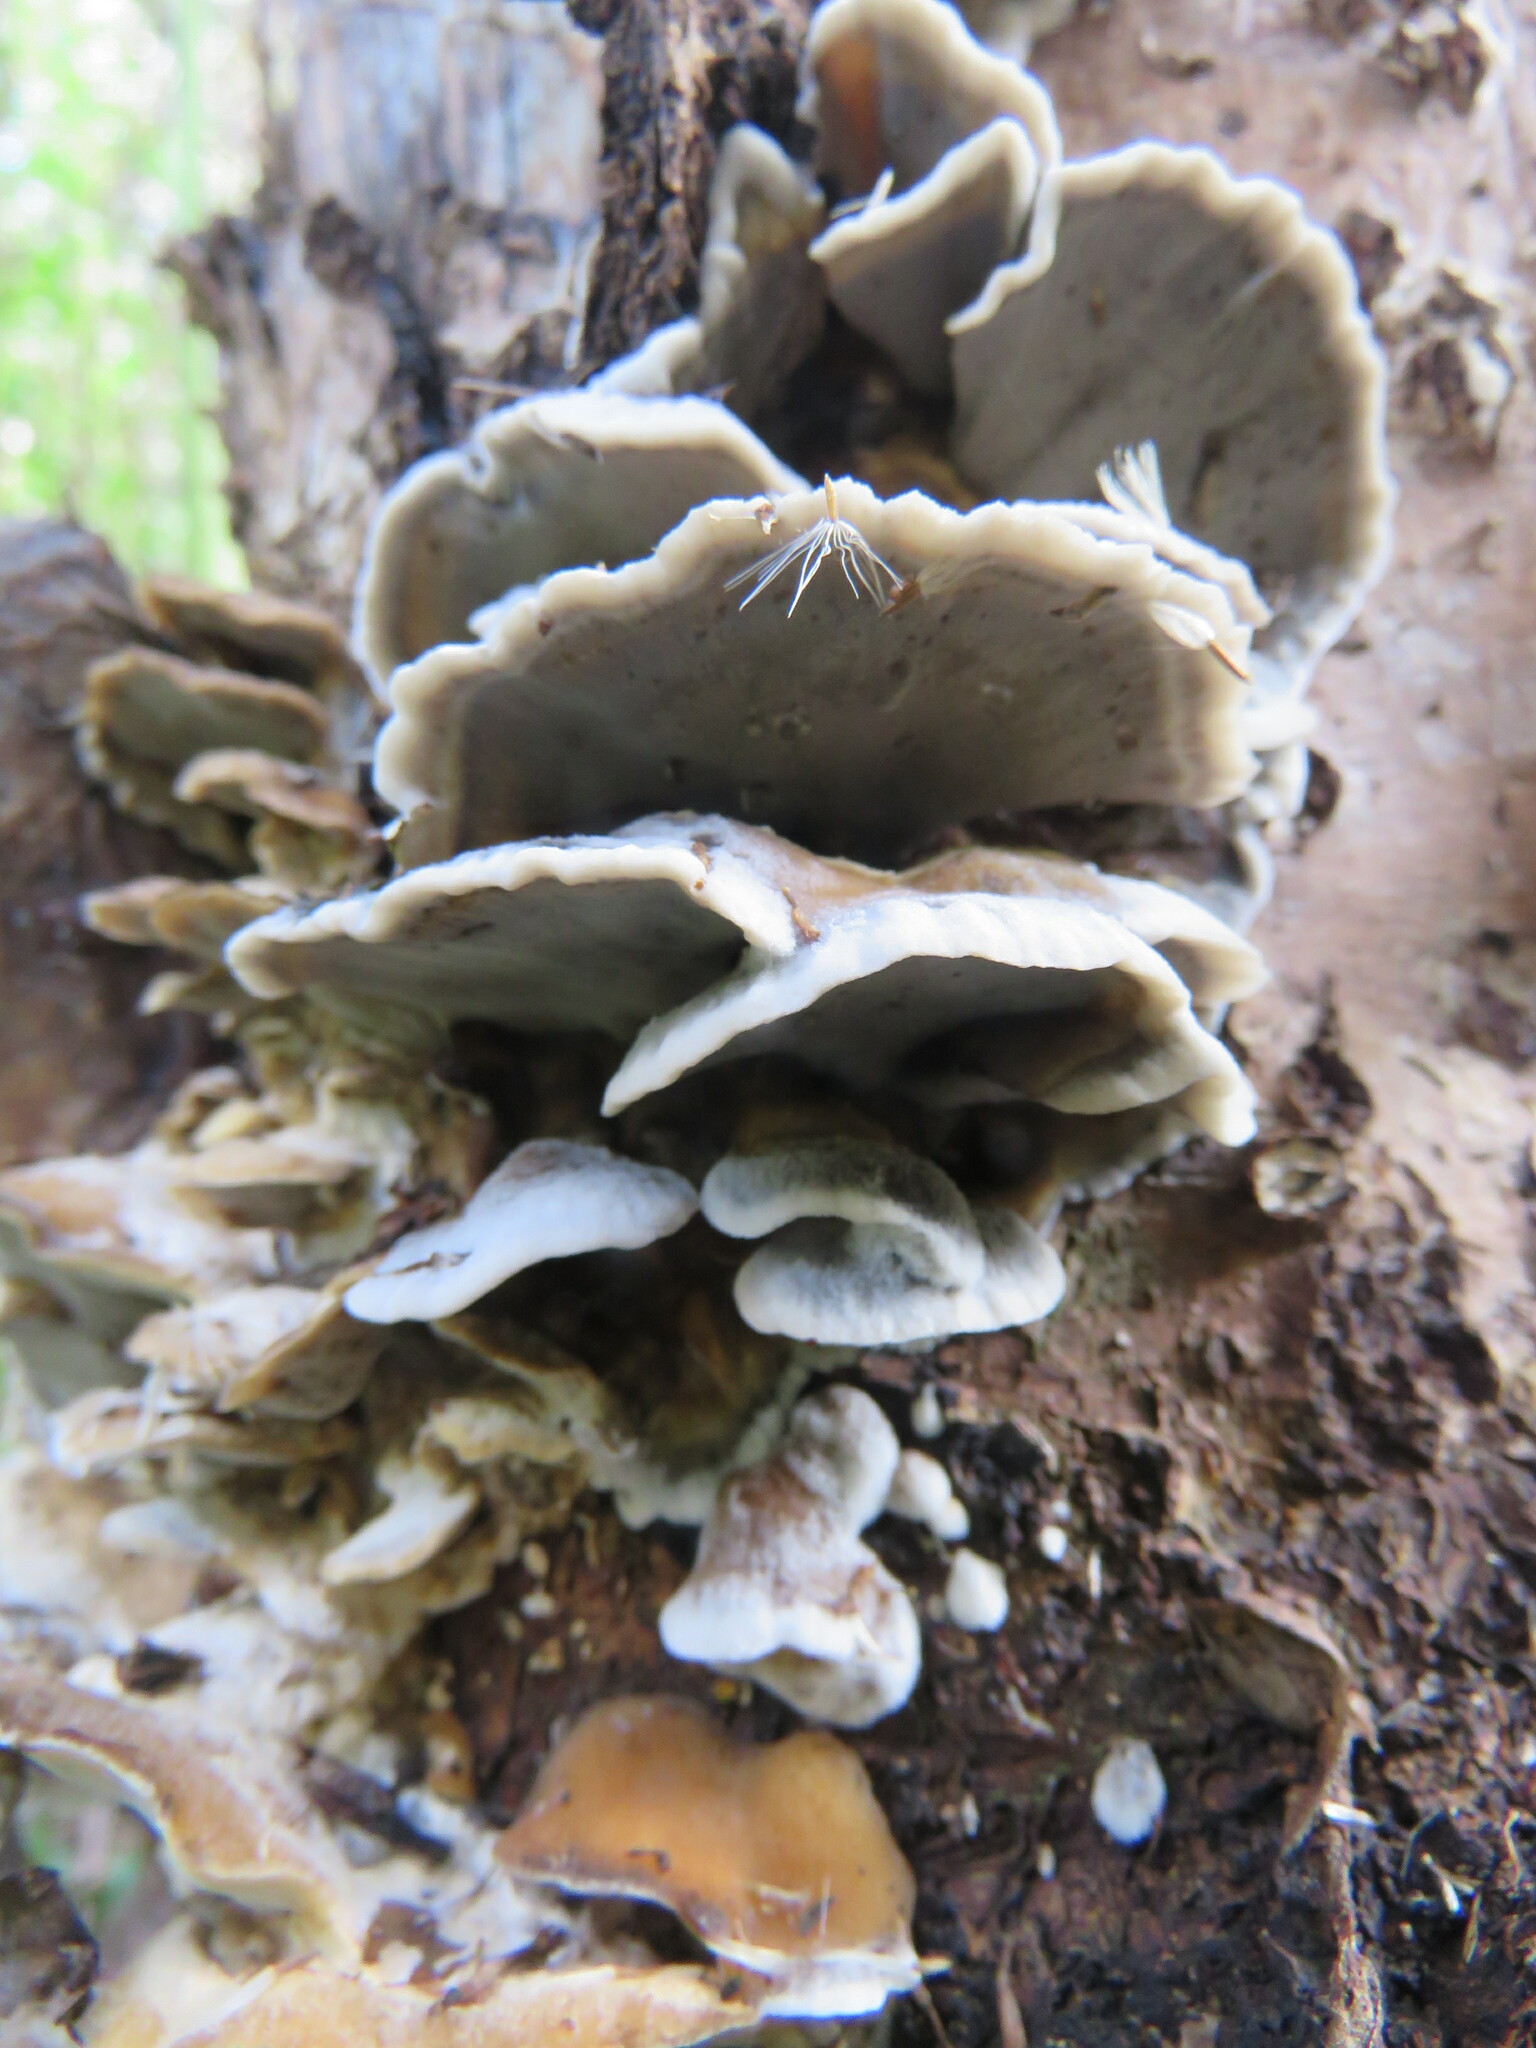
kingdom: Fungi
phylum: Basidiomycota
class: Agaricomycetes
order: Polyporales
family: Phanerochaetaceae
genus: Bjerkandera
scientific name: Bjerkandera adusta
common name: Smoky bracket
